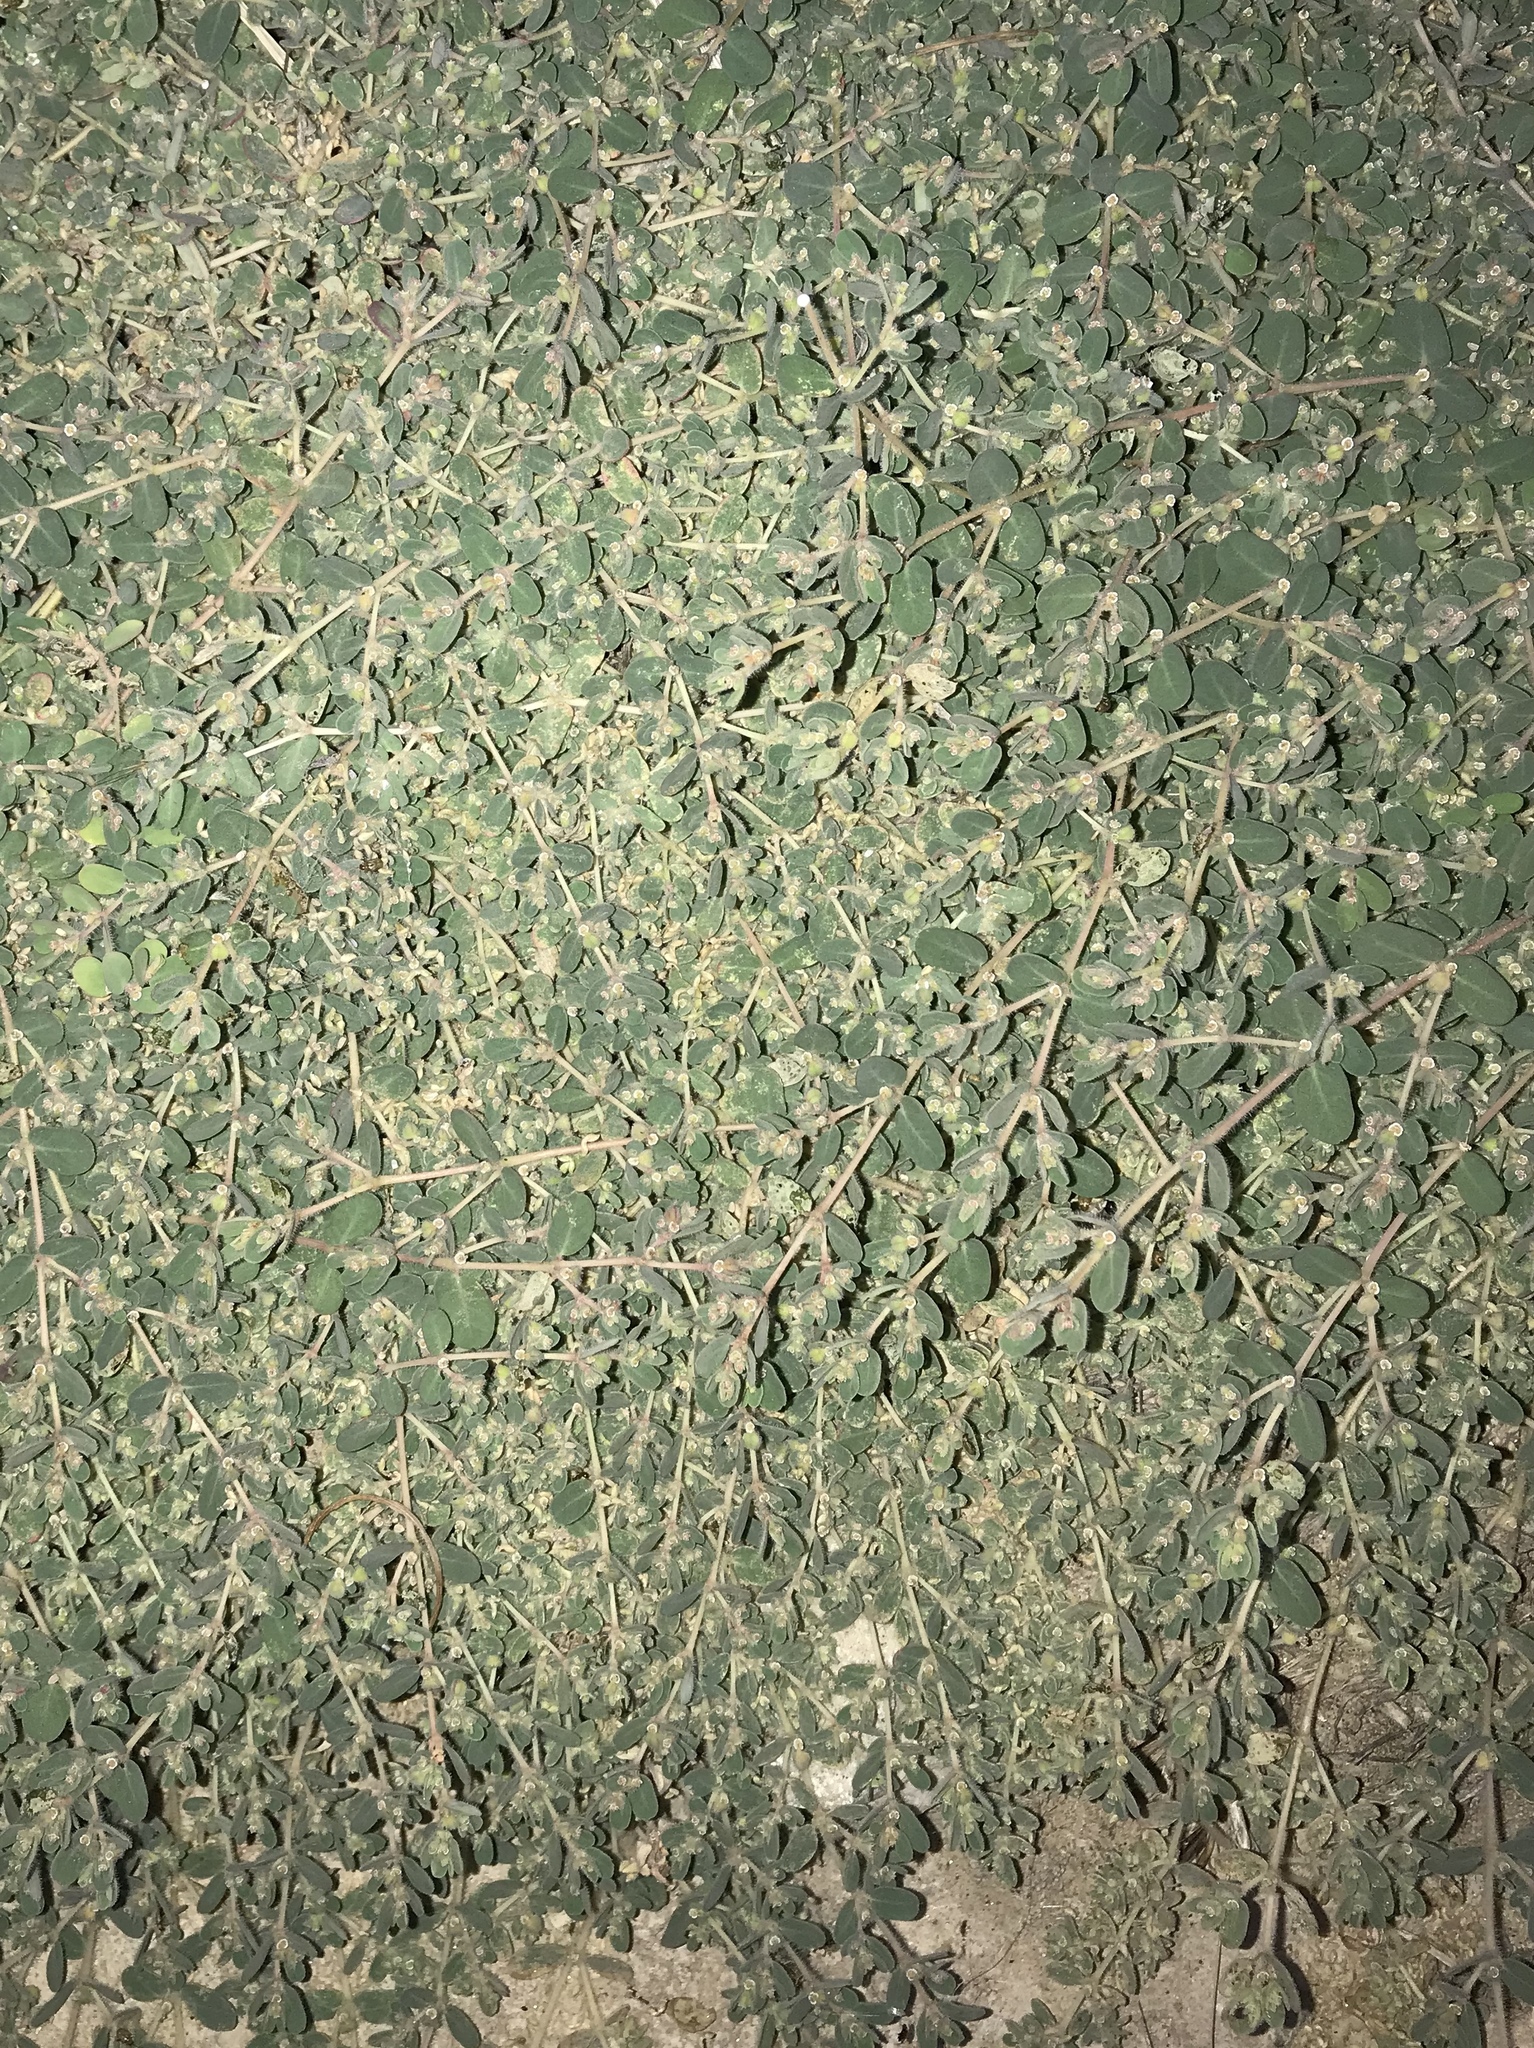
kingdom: Plantae
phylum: Tracheophyta
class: Magnoliopsida
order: Malpighiales
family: Euphorbiaceae
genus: Euphorbia
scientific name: Euphorbia granulata
